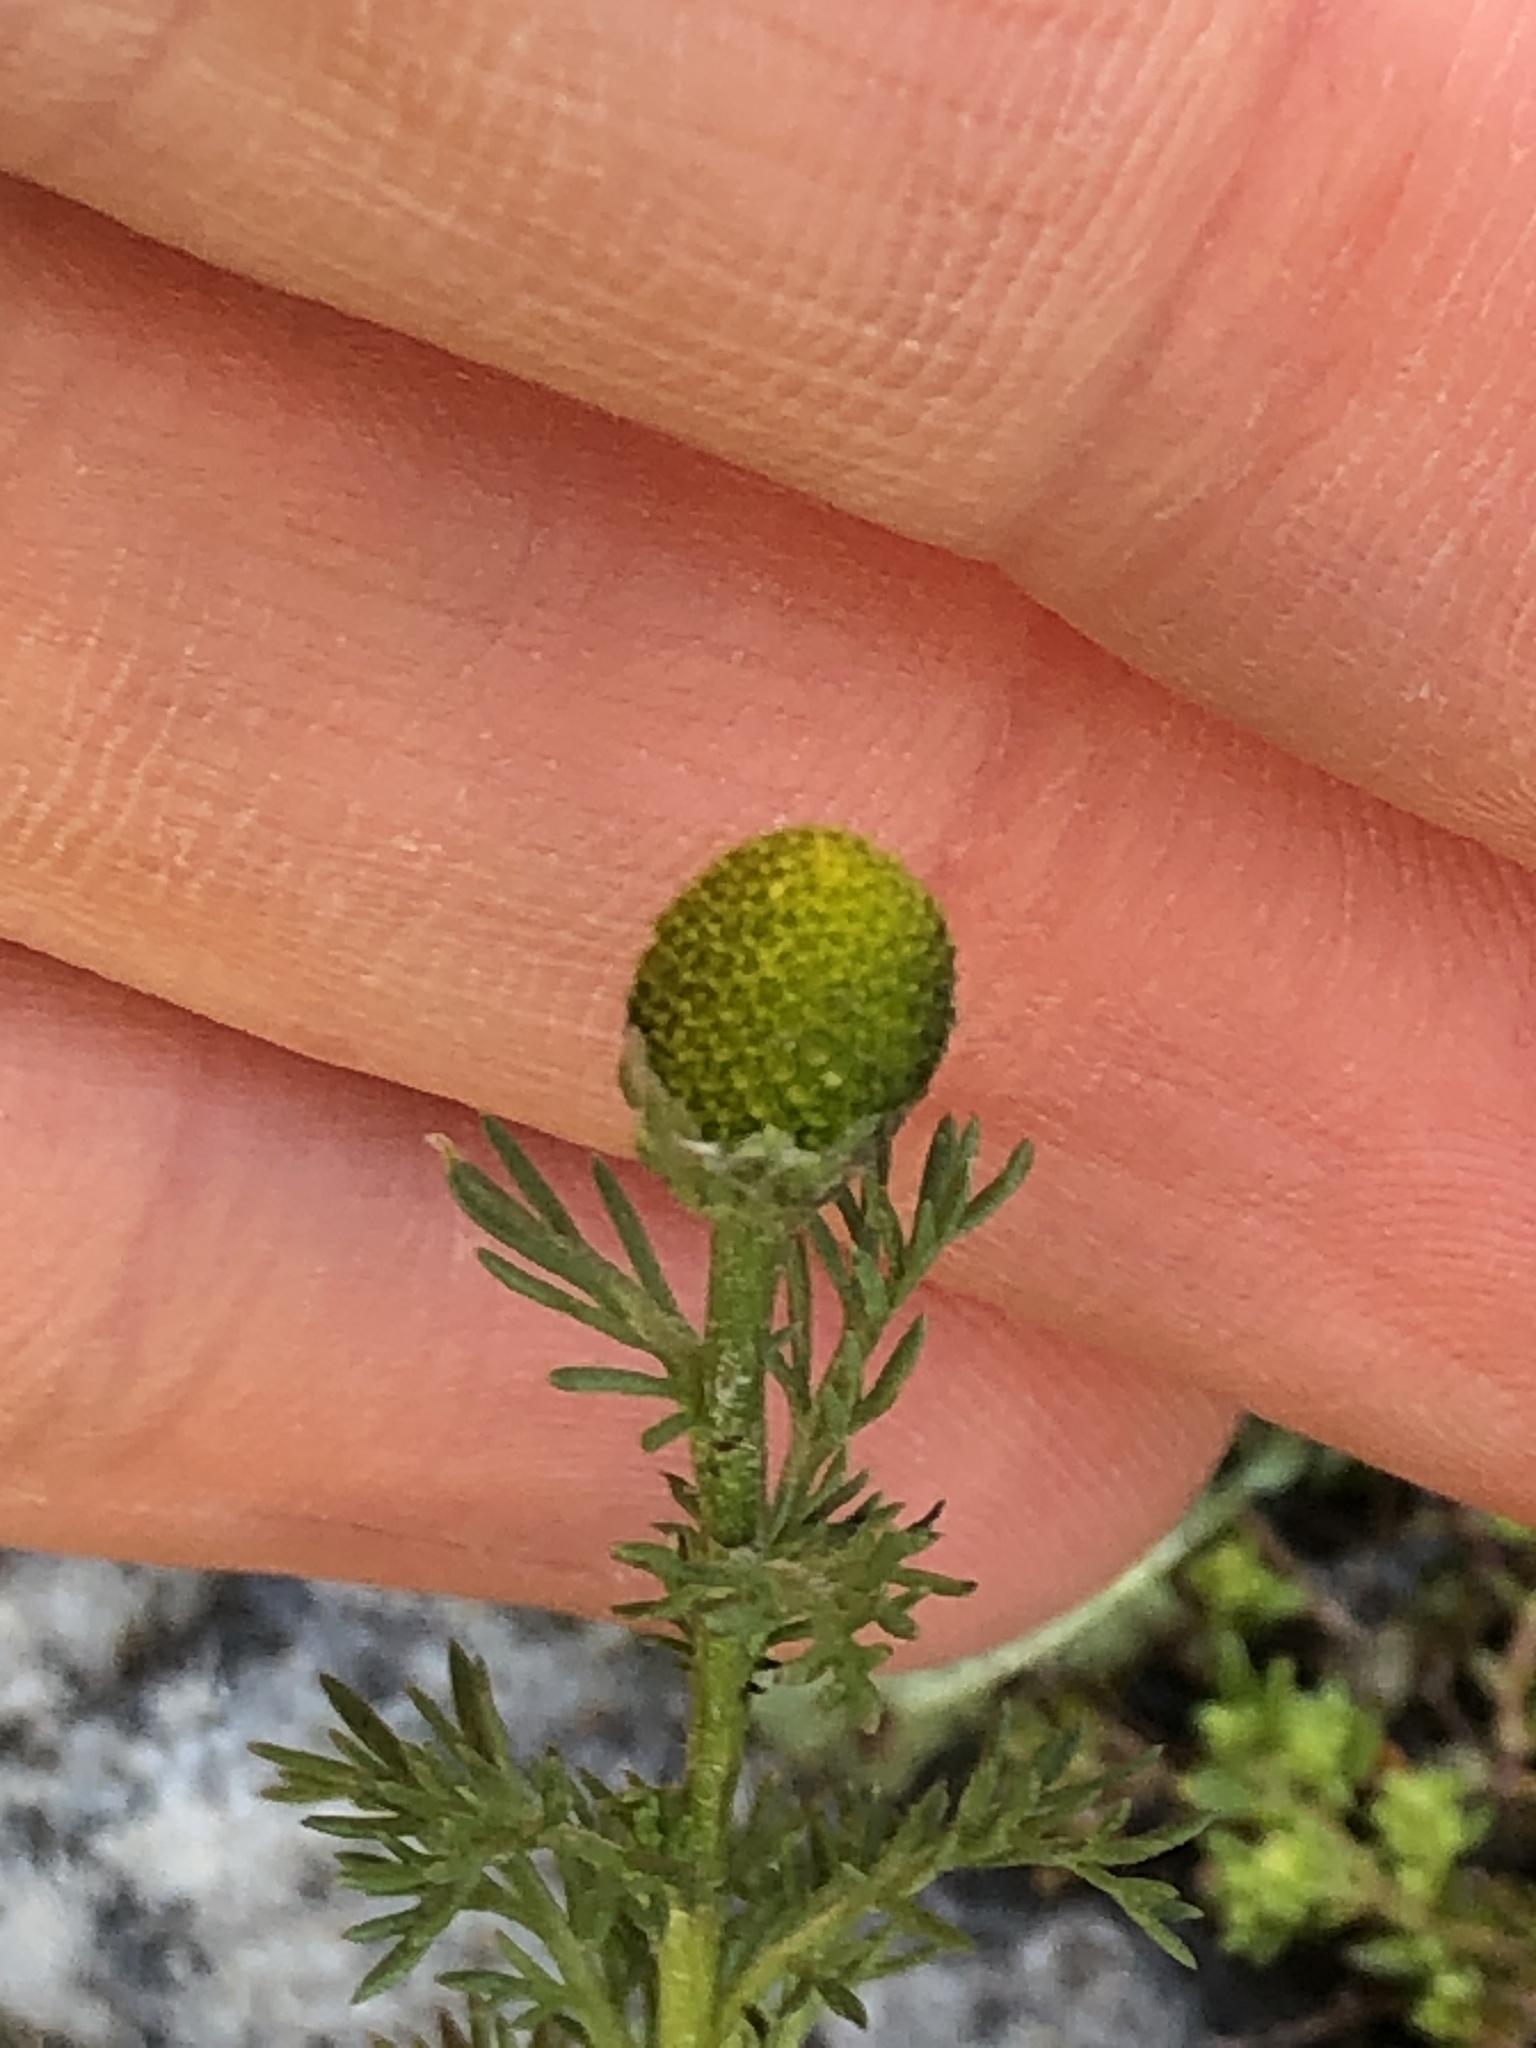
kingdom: Plantae
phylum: Tracheophyta
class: Magnoliopsida
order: Asterales
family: Asteraceae
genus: Matricaria
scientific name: Matricaria discoidea
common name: Disc mayweed
